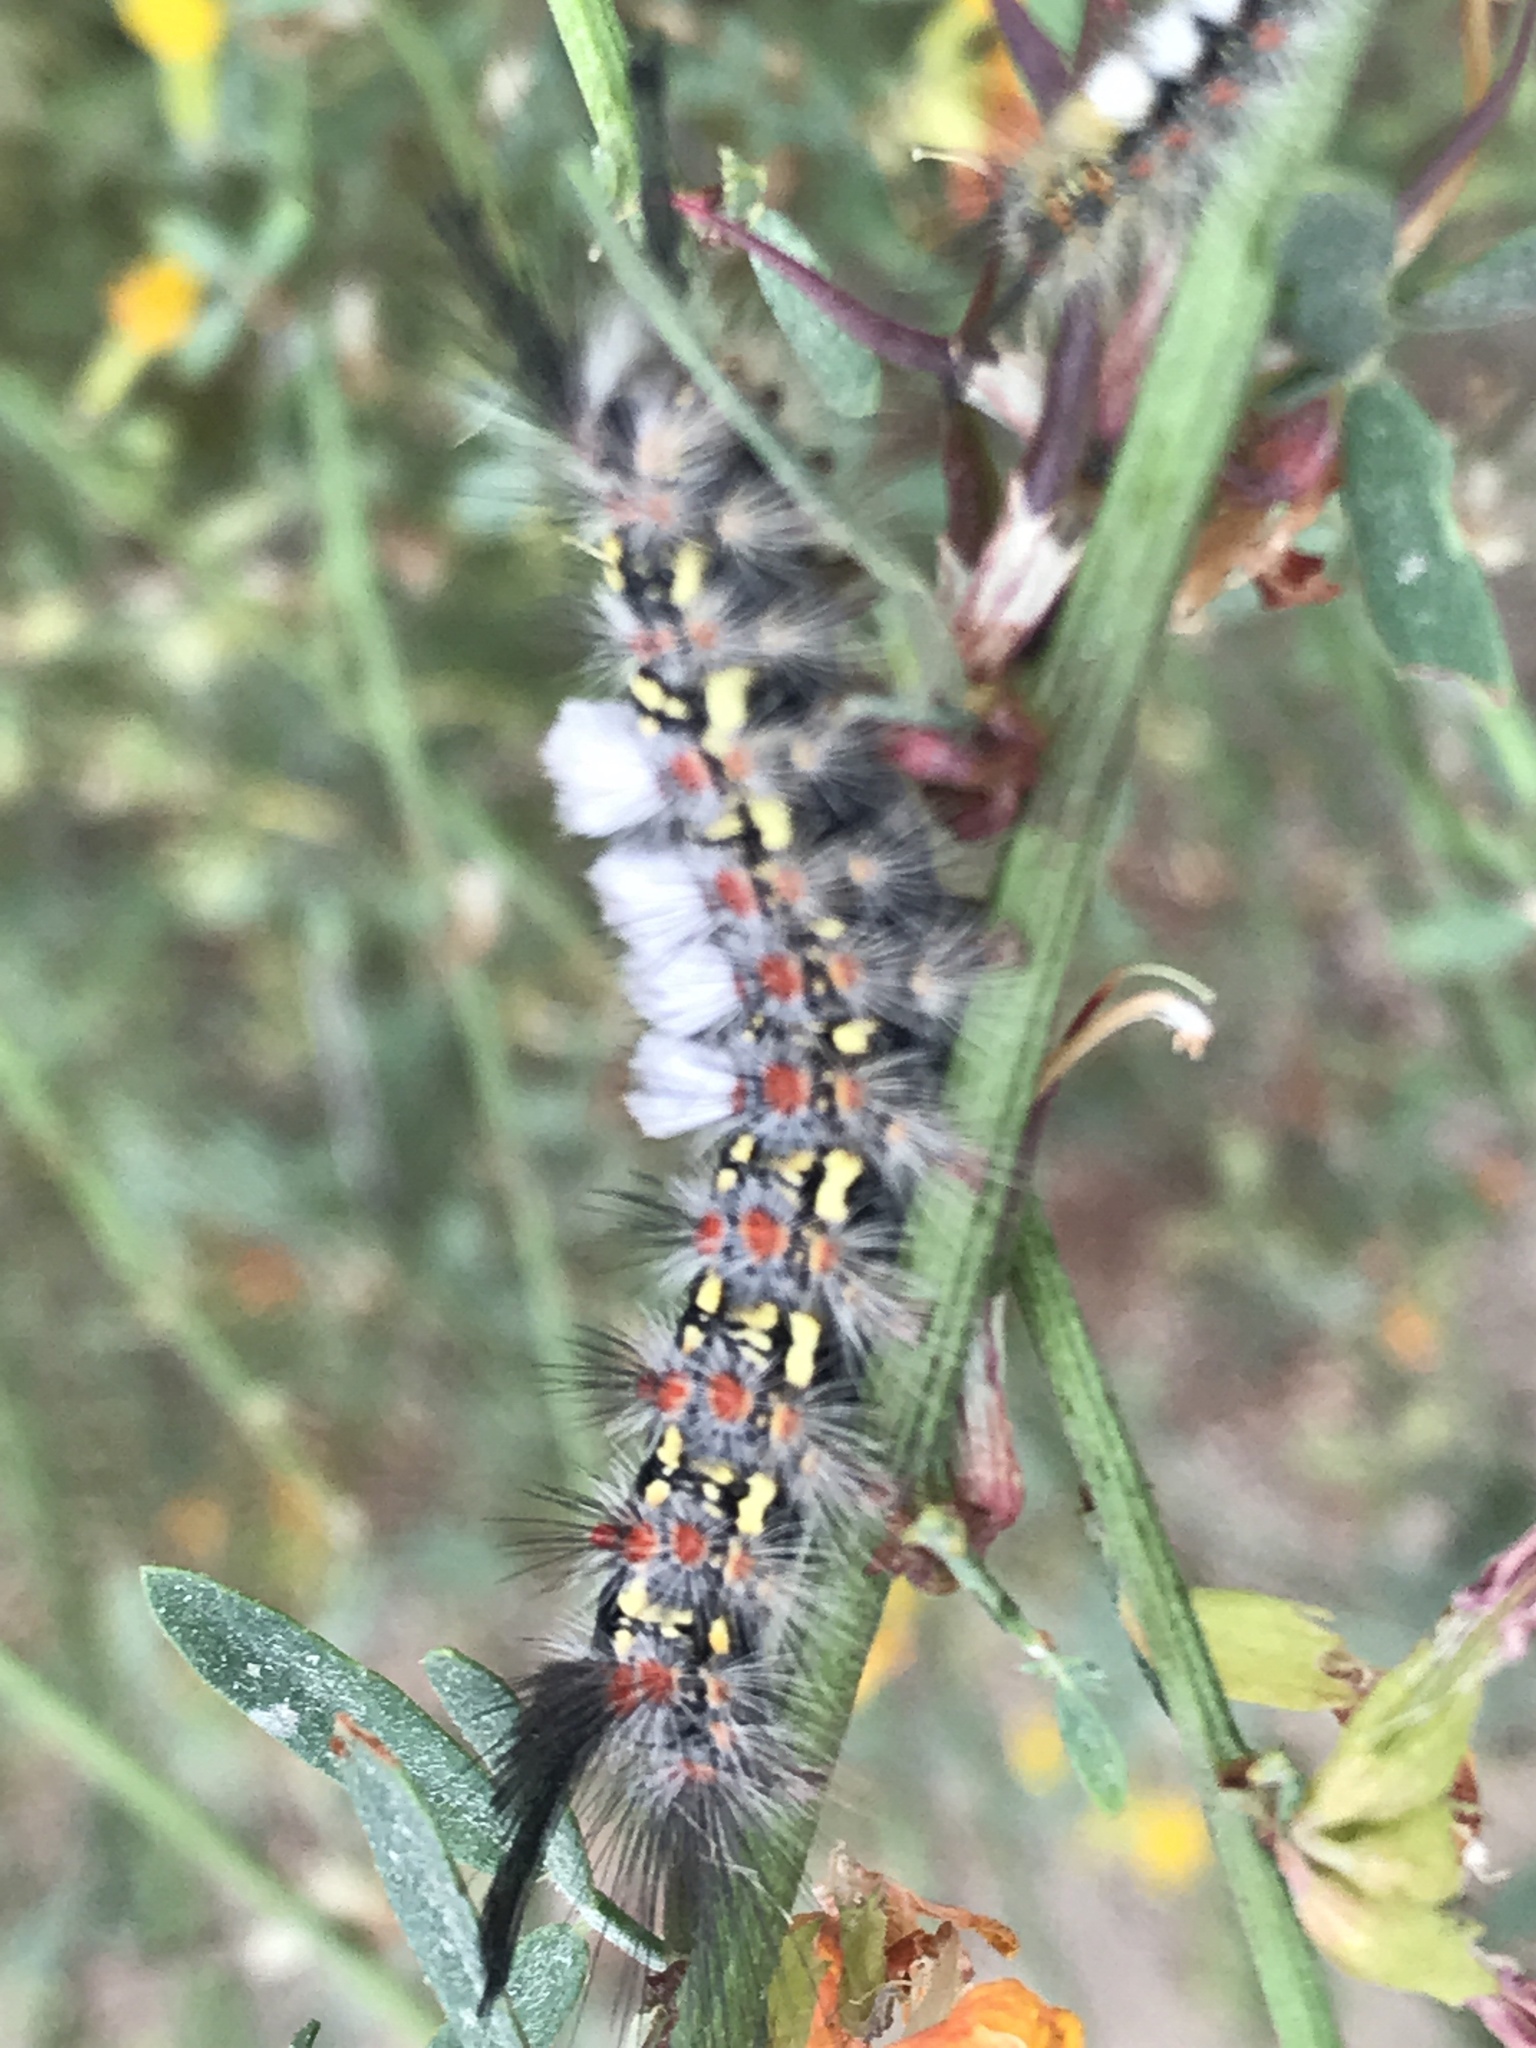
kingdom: Animalia
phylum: Arthropoda
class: Insecta
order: Lepidoptera
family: Erebidae
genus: Orgyia
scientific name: Orgyia vetusta
